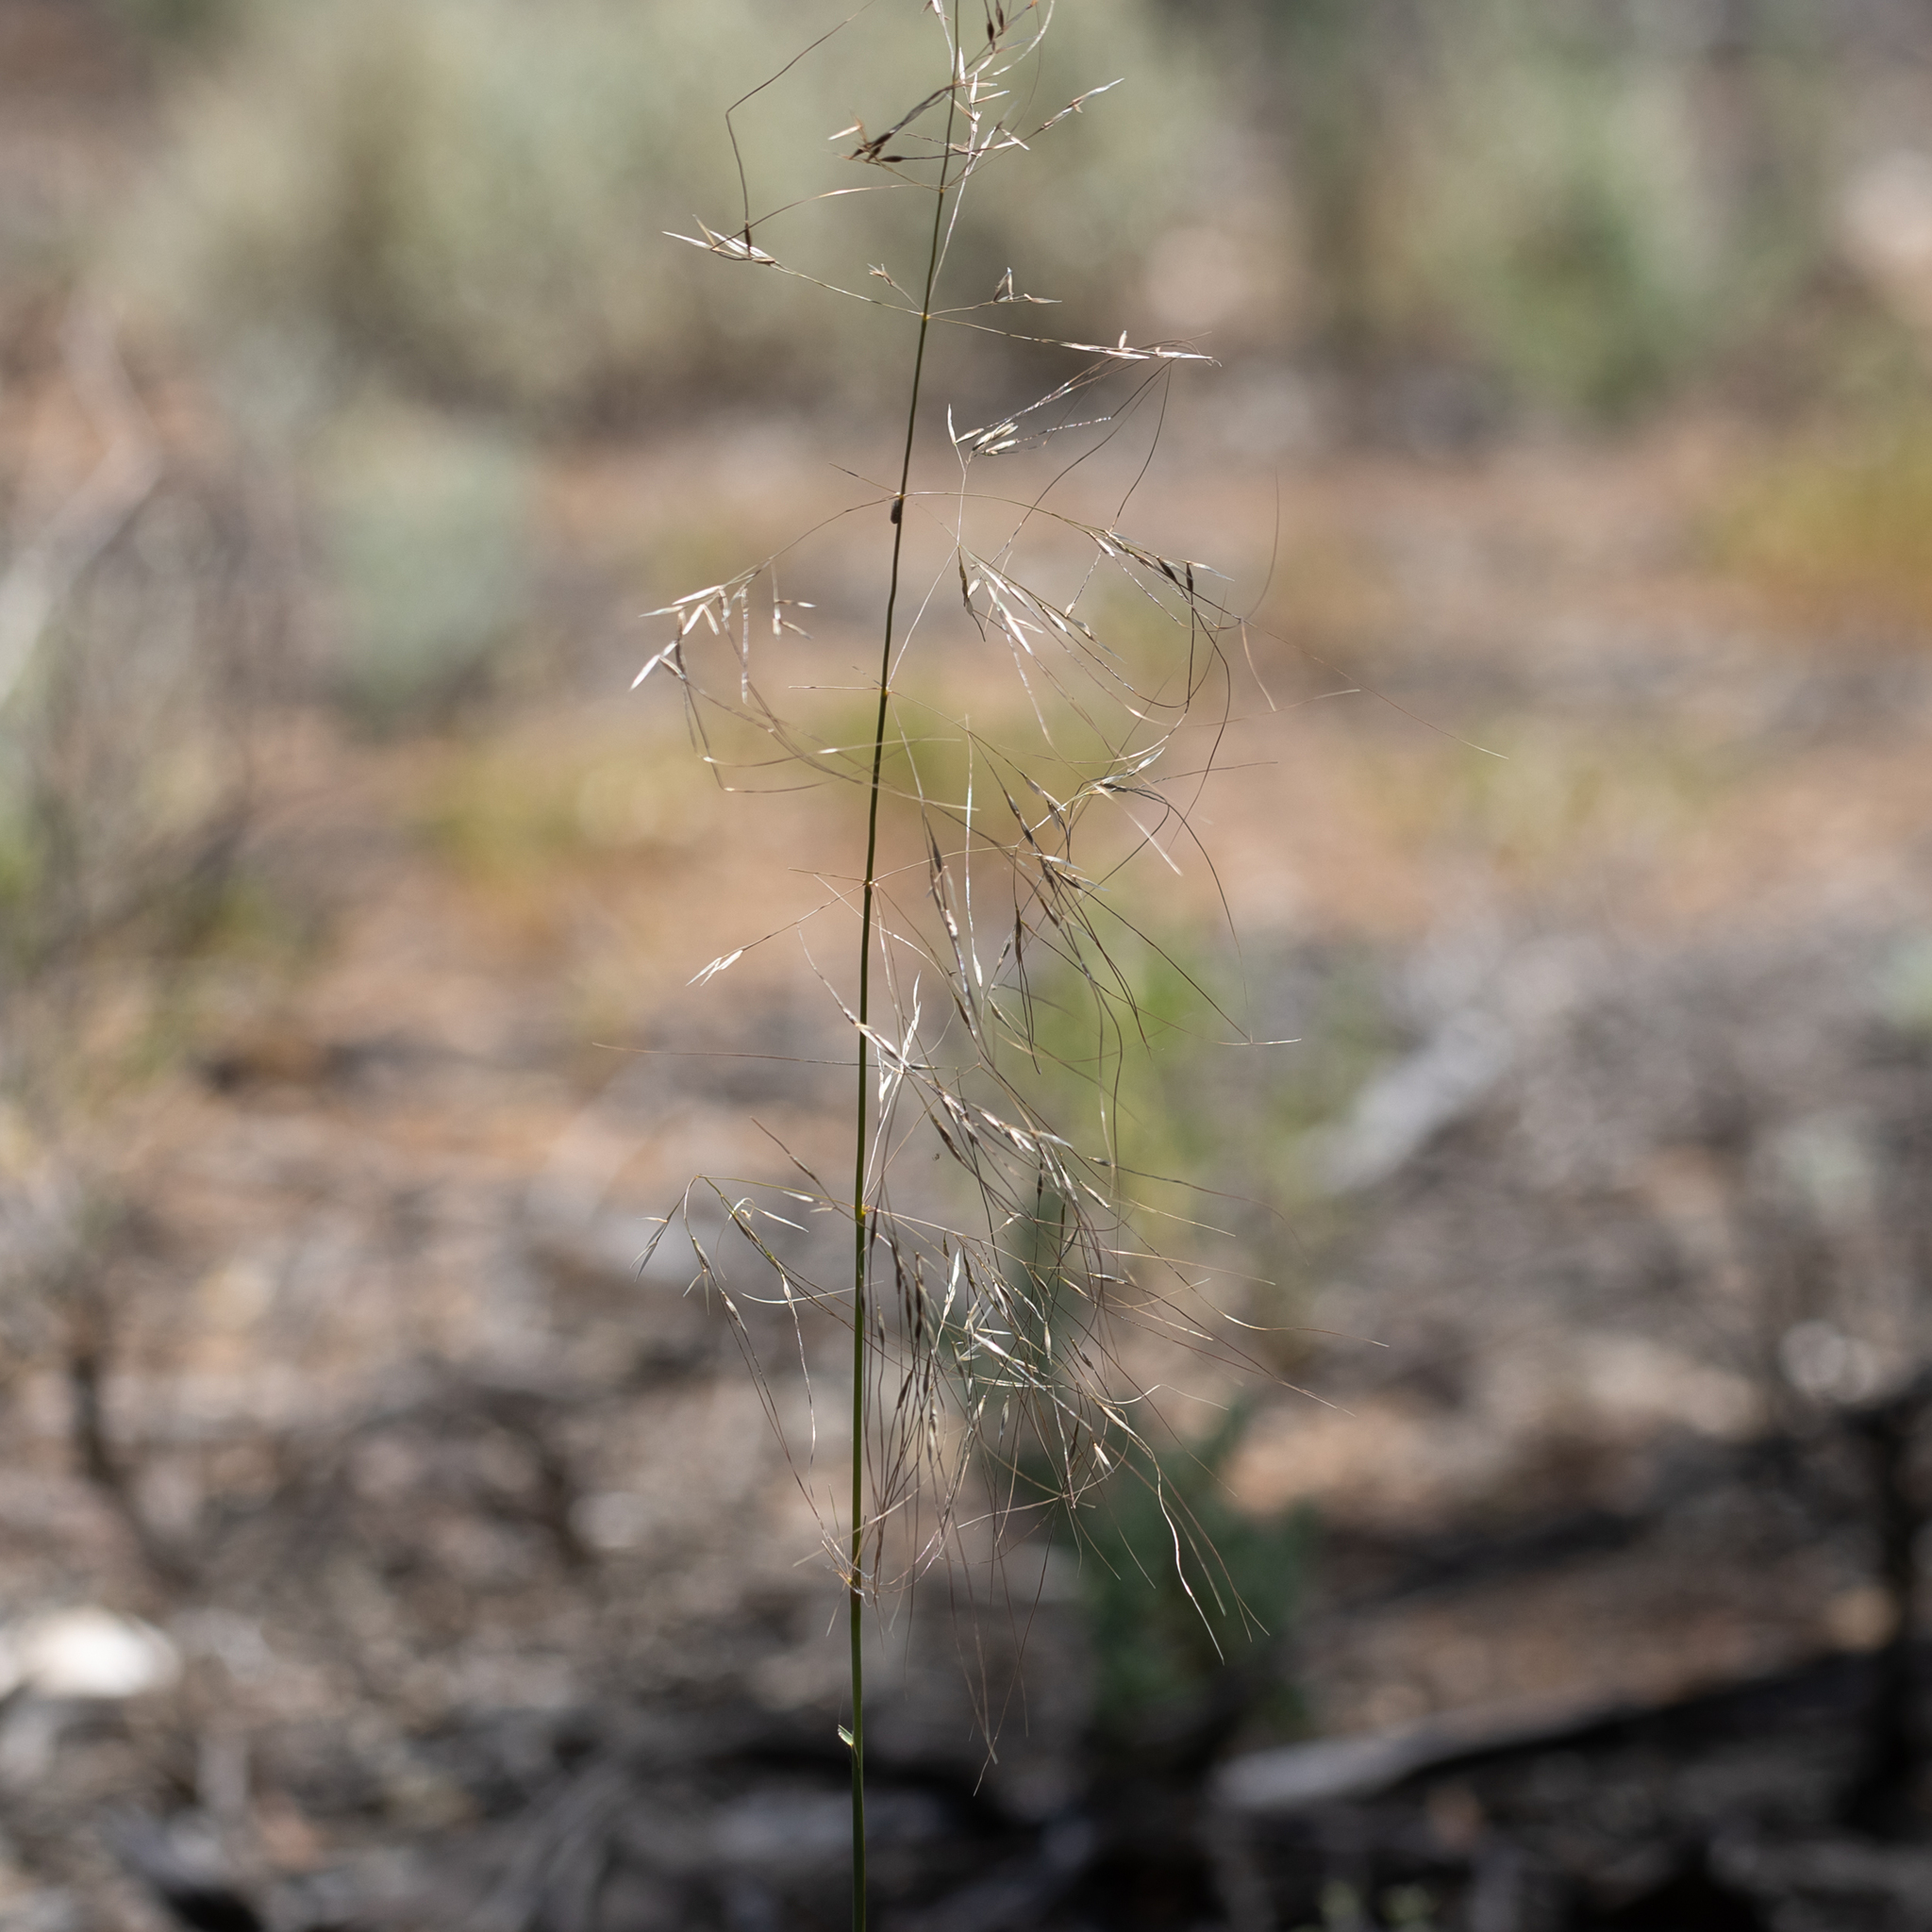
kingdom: Plantae
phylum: Tracheophyta
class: Liliopsida
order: Poales
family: Poaceae
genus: Austrostipa
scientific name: Austrostipa acrociliata
